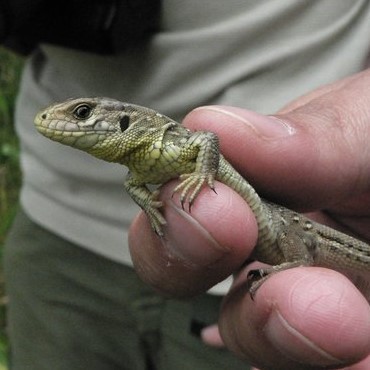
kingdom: Animalia
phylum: Chordata
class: Squamata
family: Lacertidae
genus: Lacerta
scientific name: Lacerta agilis
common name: Sand lizard
